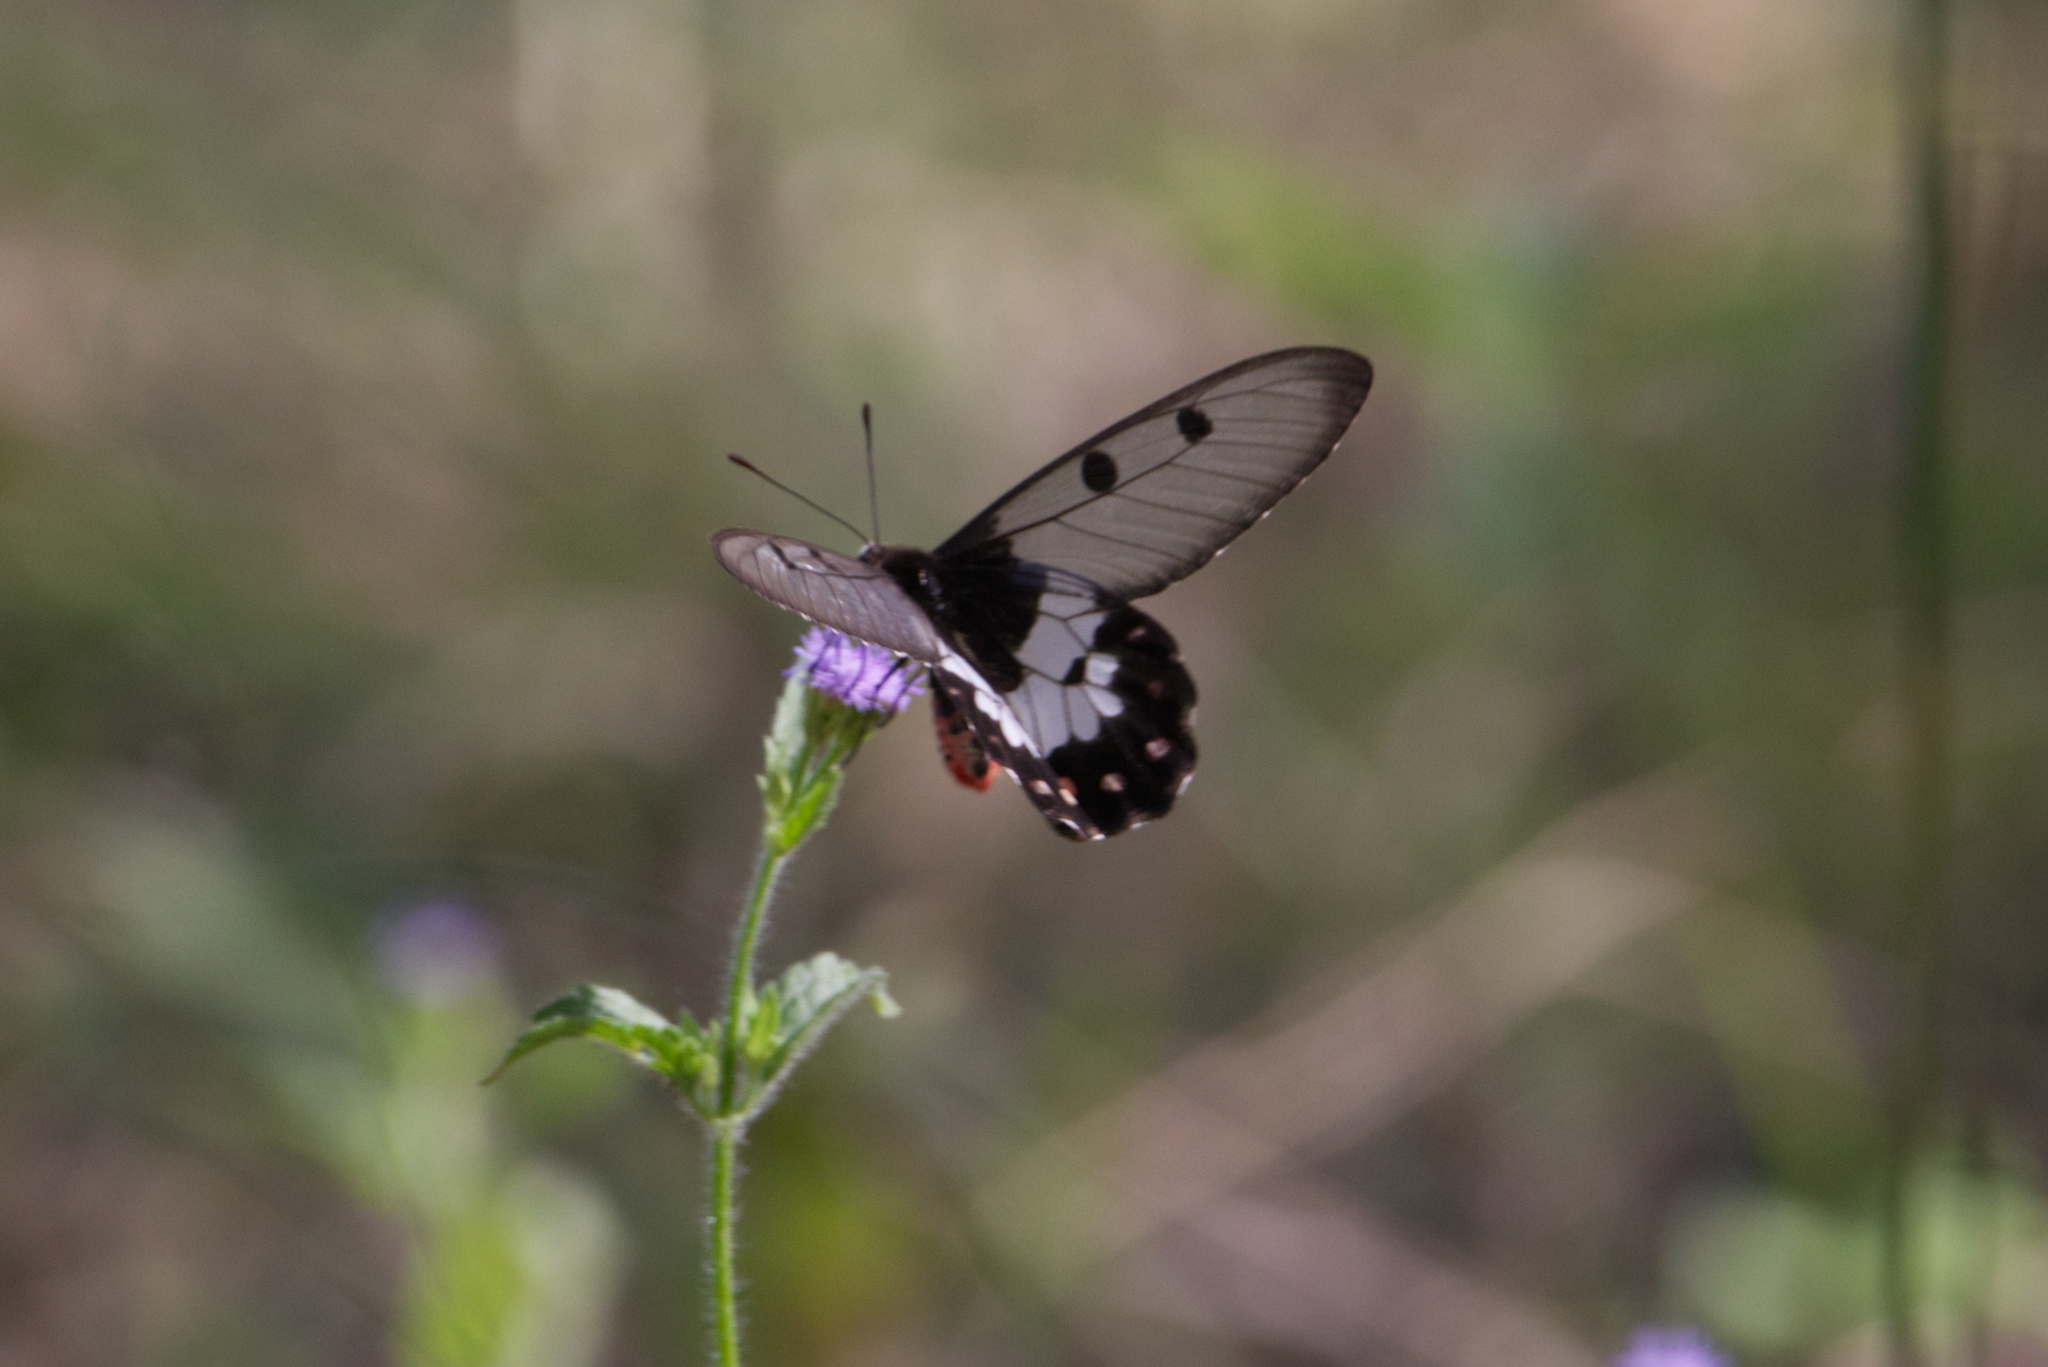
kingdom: Animalia
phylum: Arthropoda
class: Insecta
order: Lepidoptera
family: Papilionidae
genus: Cressida
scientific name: Cressida cressida
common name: Big greasy
